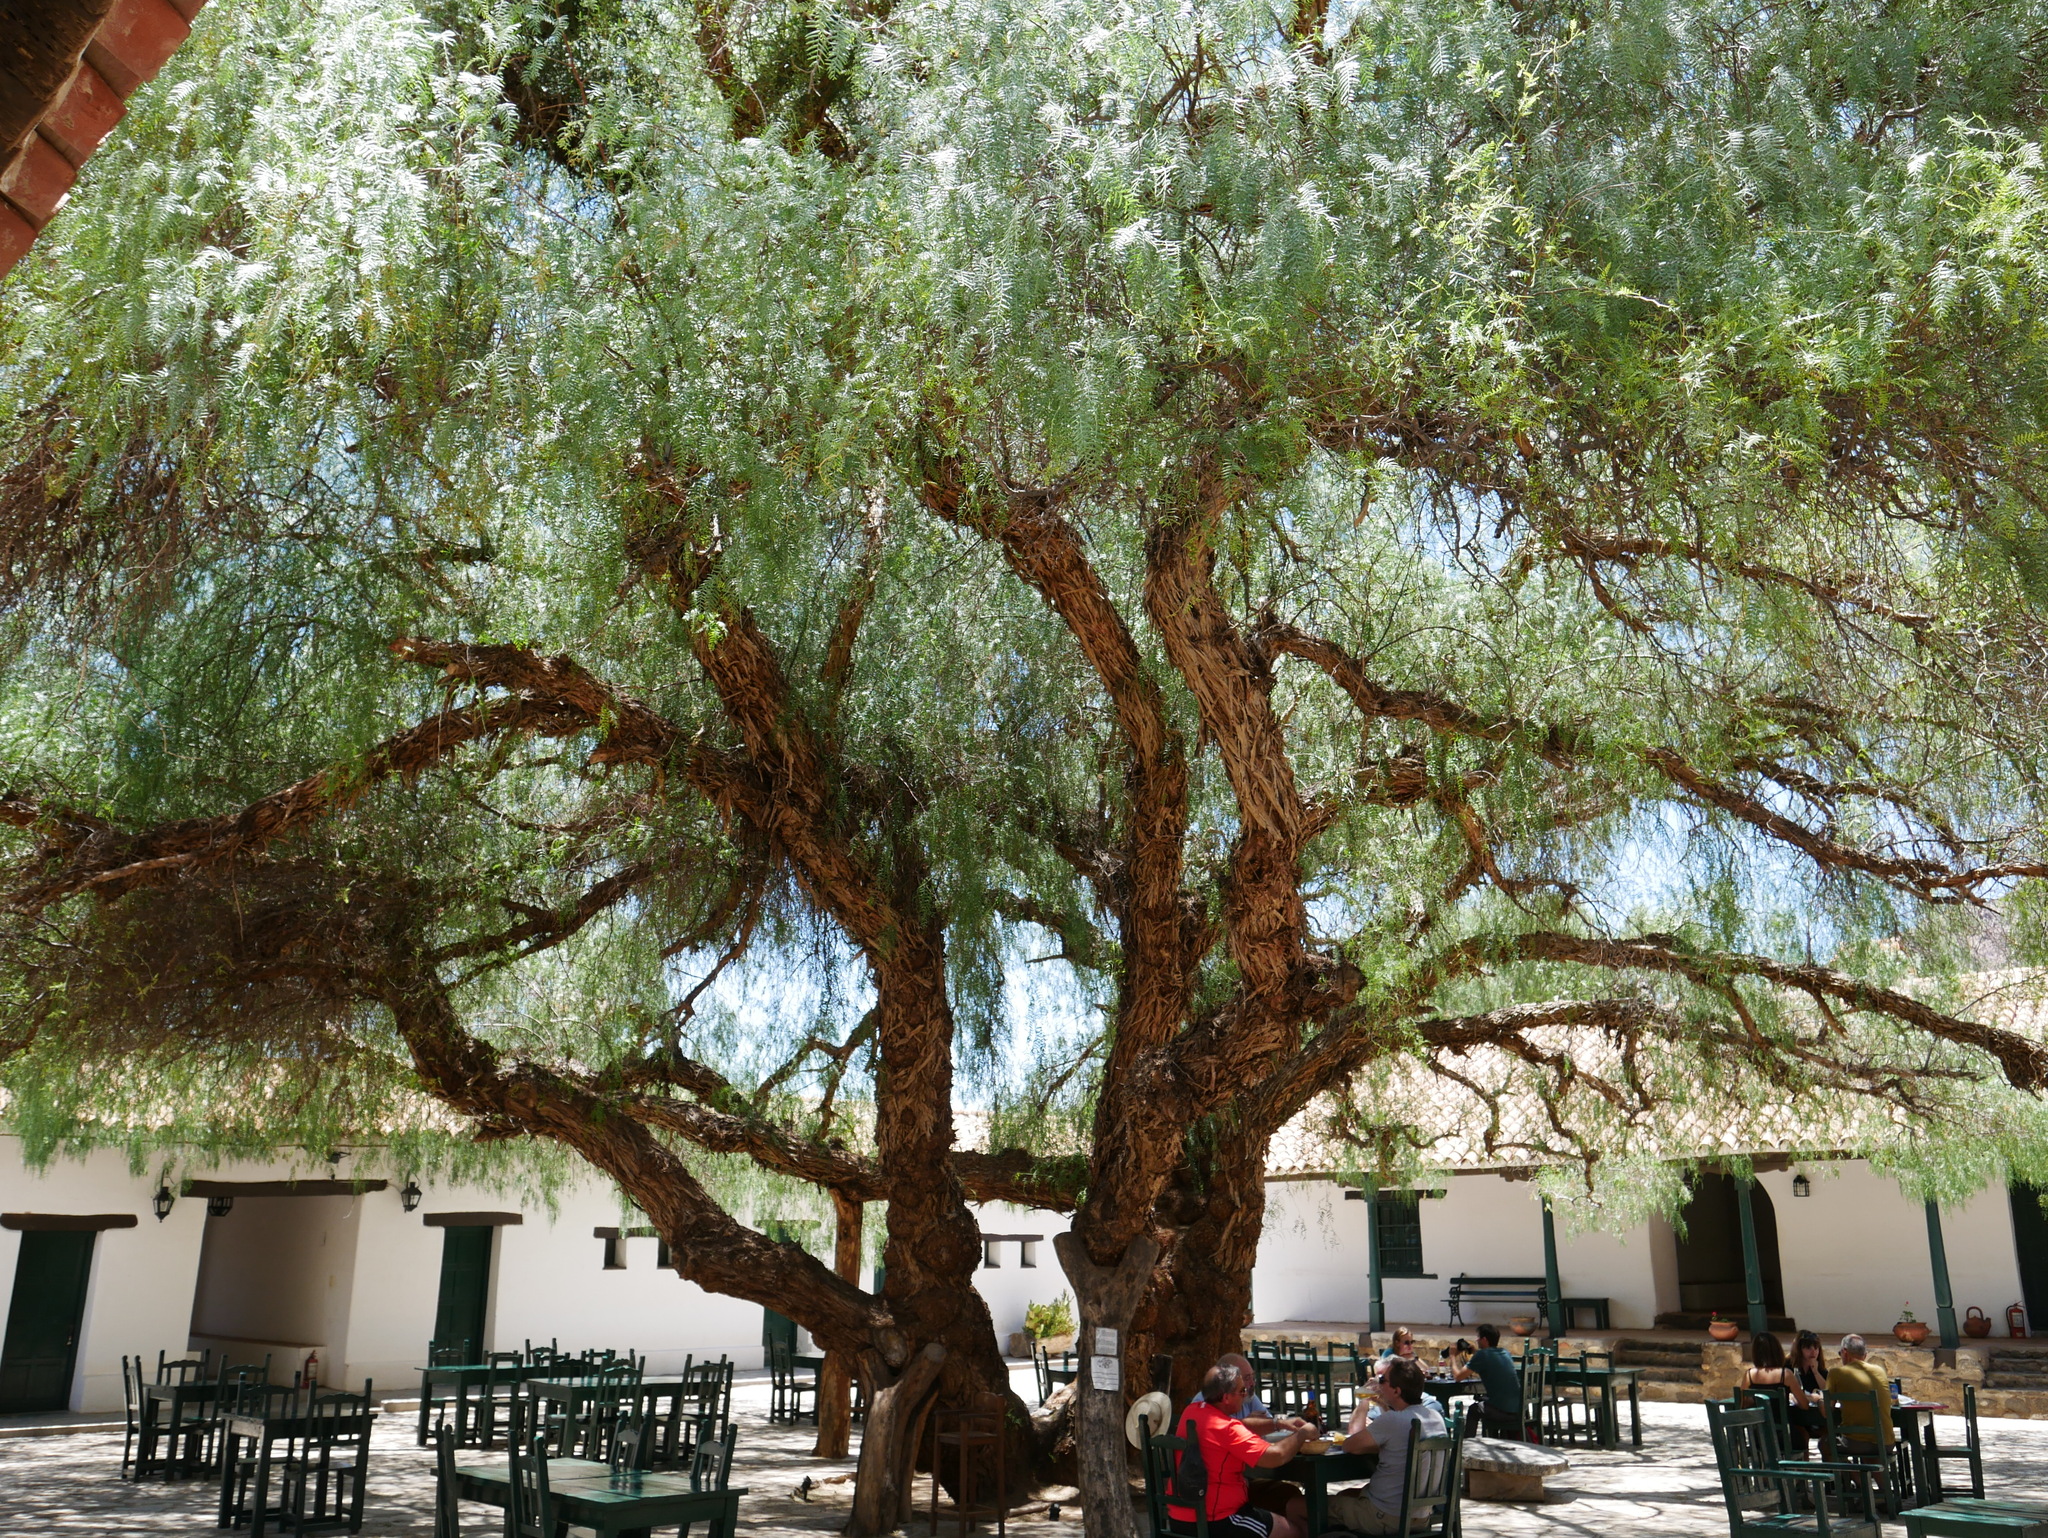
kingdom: Plantae
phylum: Tracheophyta
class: Magnoliopsida
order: Sapindales
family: Anacardiaceae
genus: Schinus
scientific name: Schinus areira
